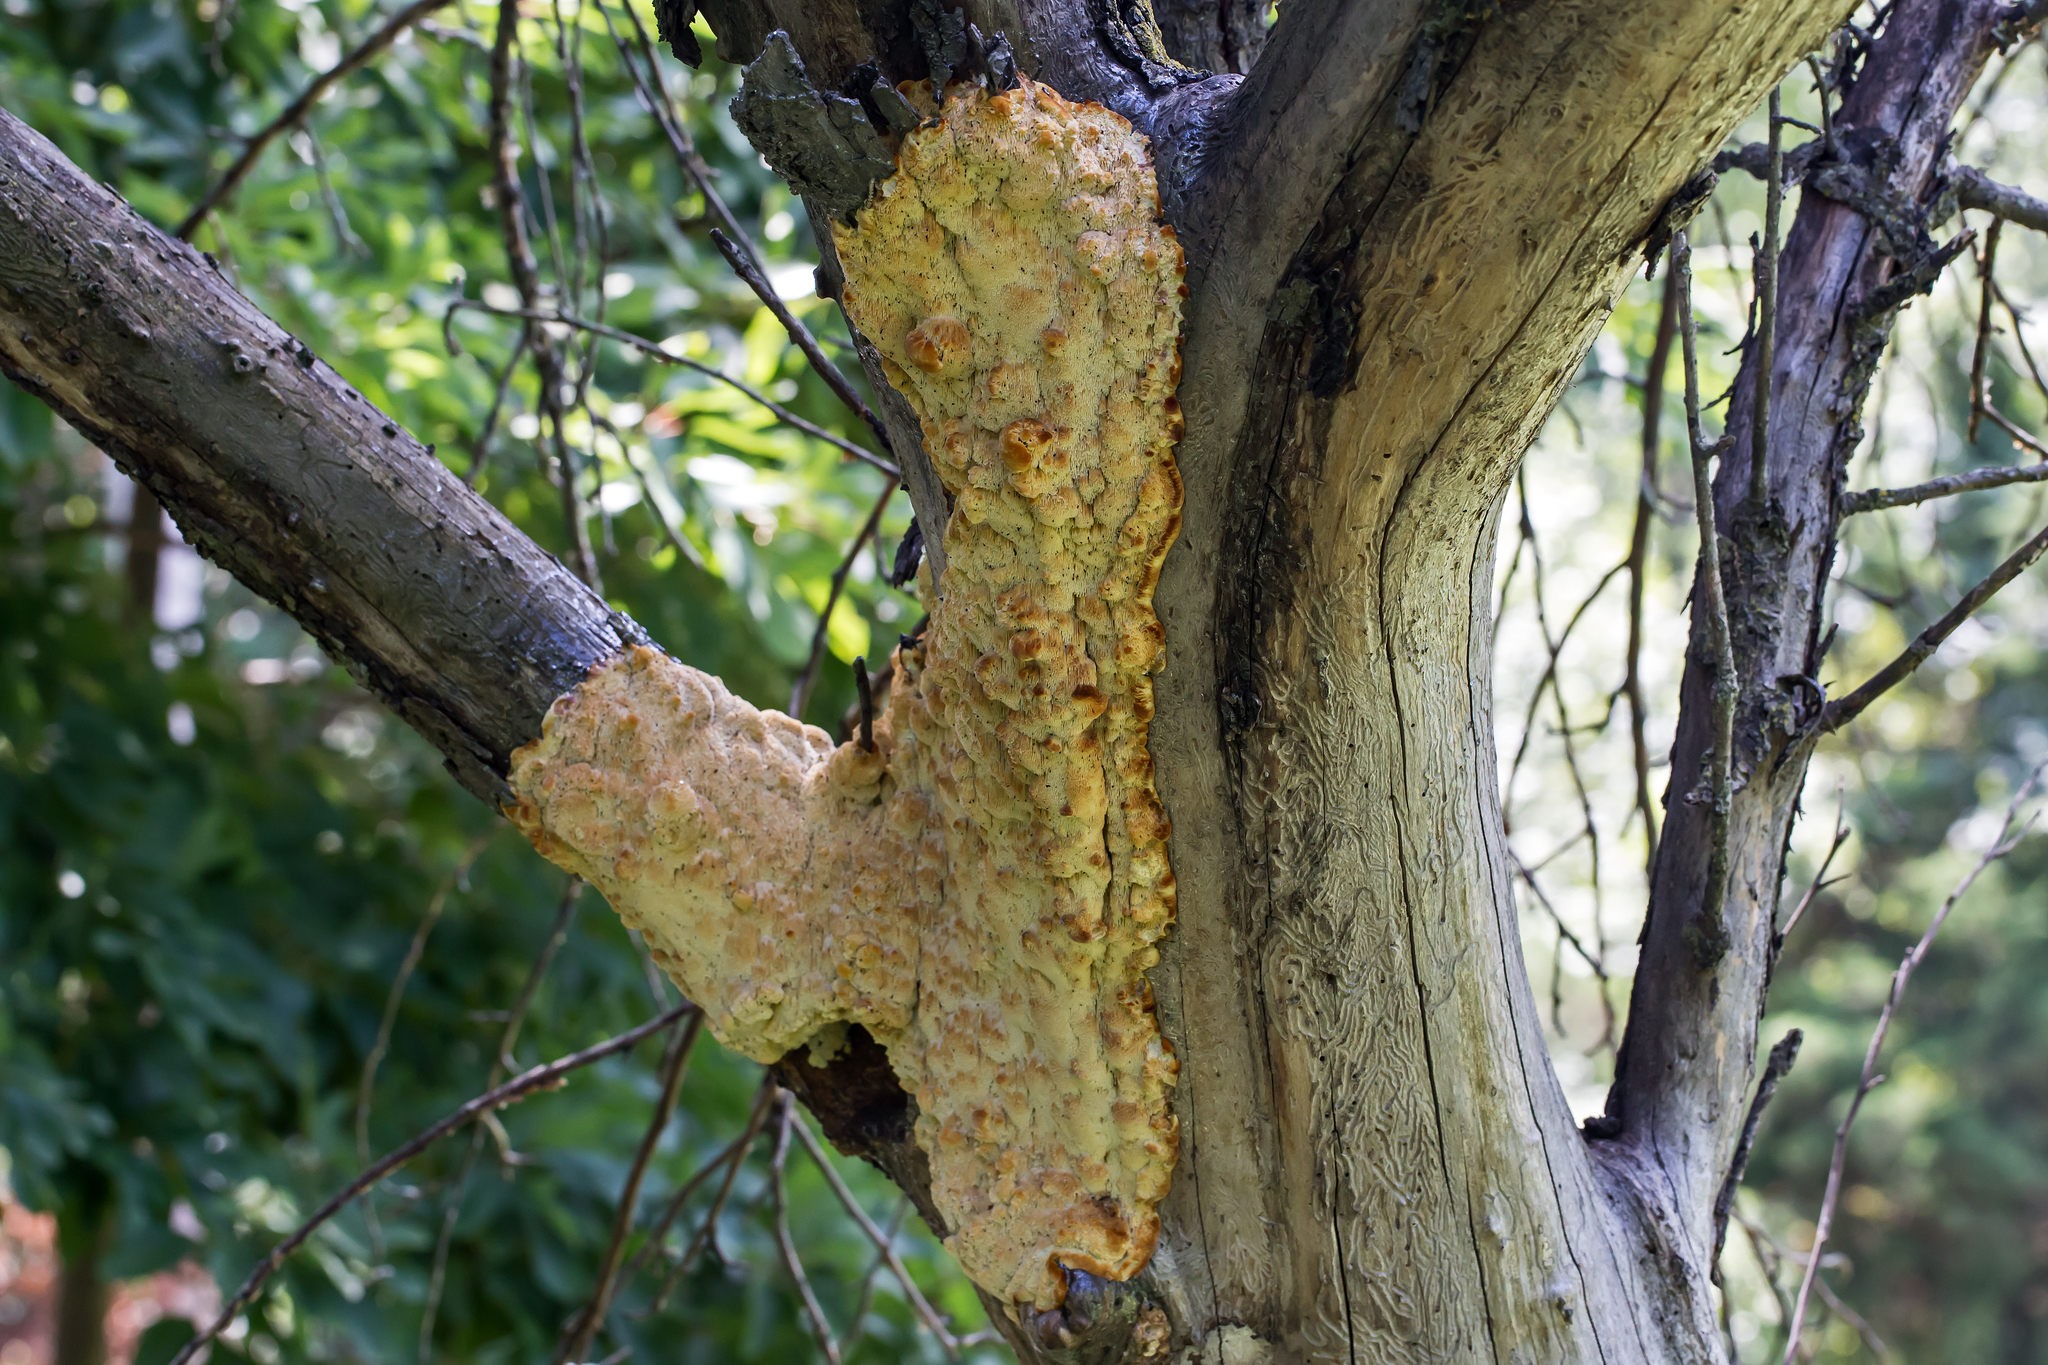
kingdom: Fungi
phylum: Basidiomycota
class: Agaricomycetes
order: Polyporales
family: Meruliaceae
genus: Noblesia
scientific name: Noblesia crocea
